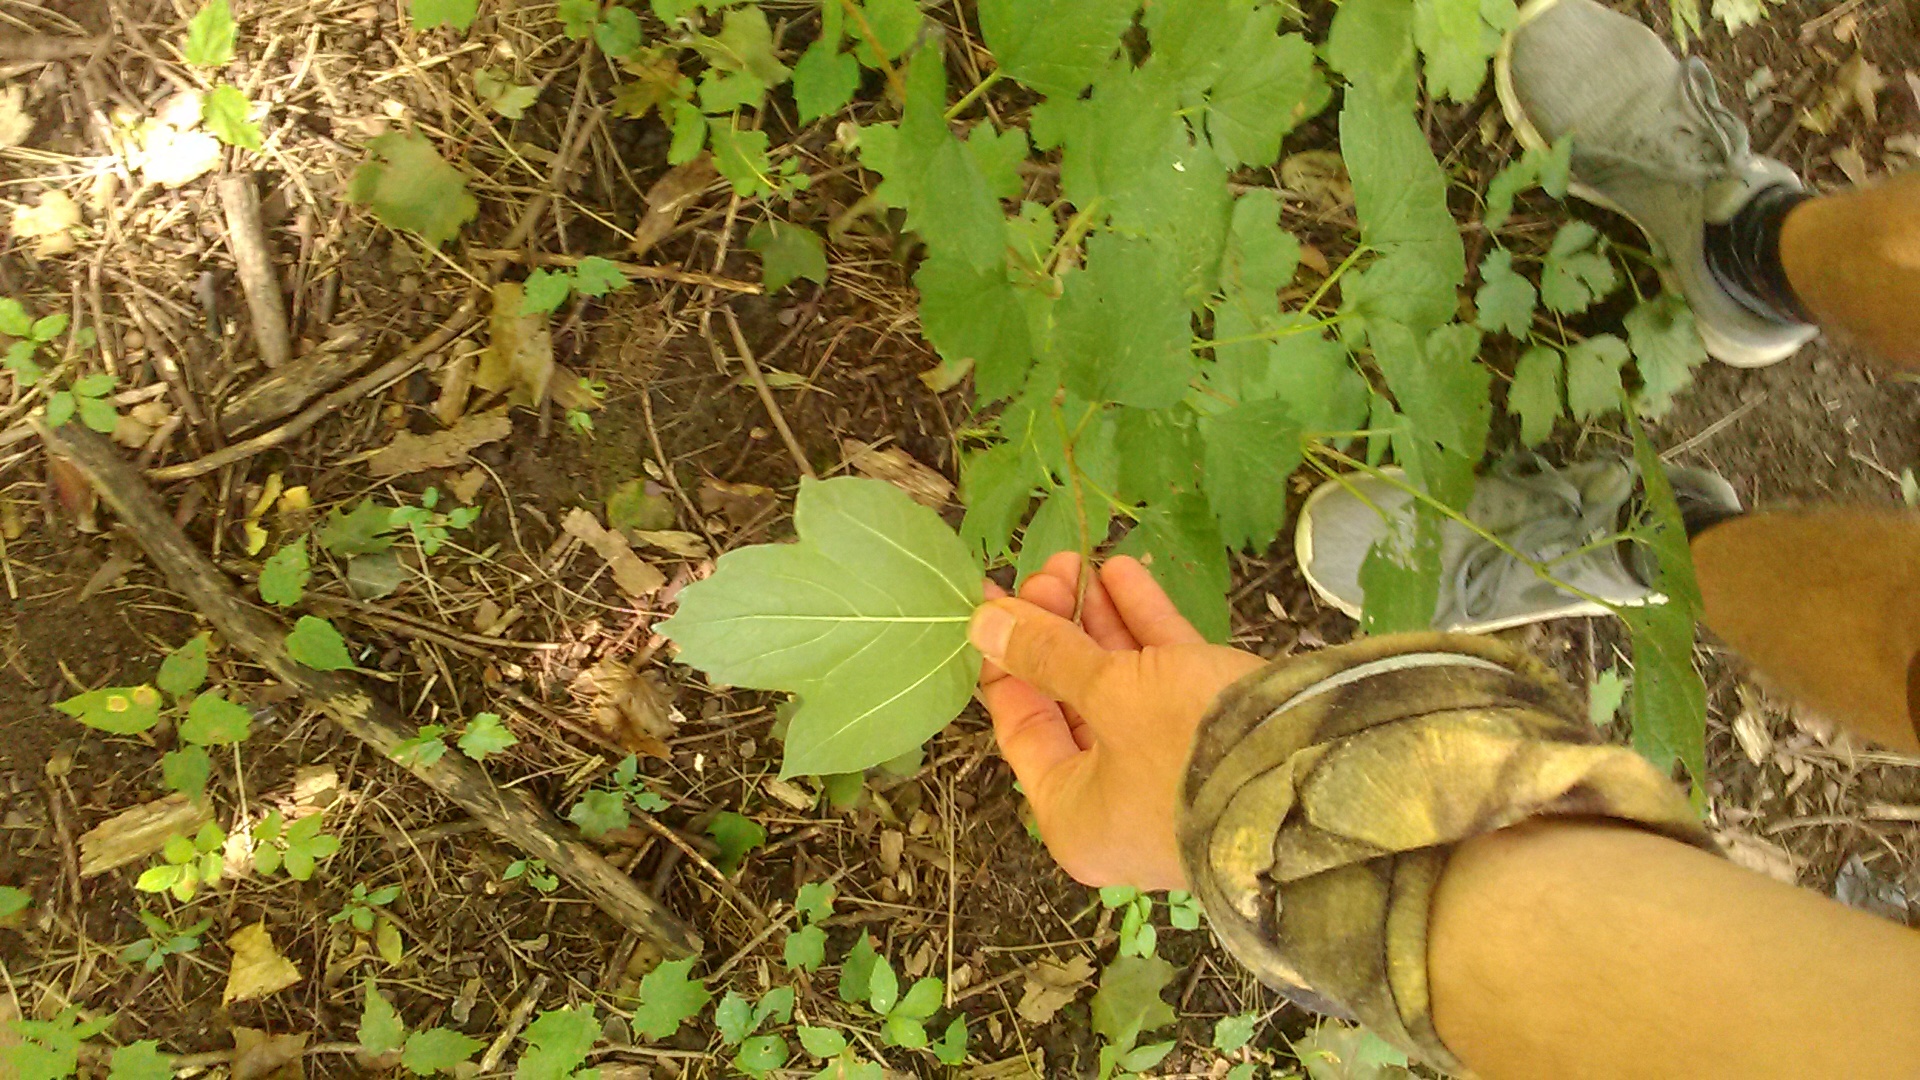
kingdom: Plantae
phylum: Tracheophyta
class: Magnoliopsida
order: Dipsacales
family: Viburnaceae
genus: Viburnum
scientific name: Viburnum opulus
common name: Guelder-rose
